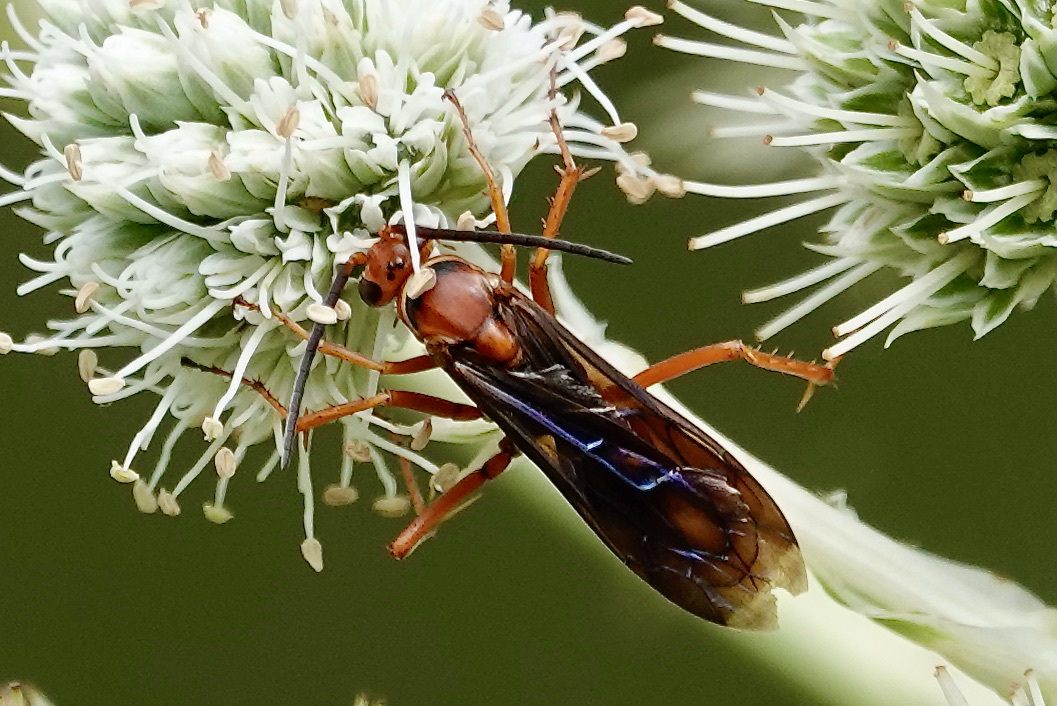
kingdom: Animalia
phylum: Arthropoda
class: Insecta
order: Hymenoptera
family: Pompilidae
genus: Tachypompilus
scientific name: Tachypompilus ferrugineus
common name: Rusty spider wasp
